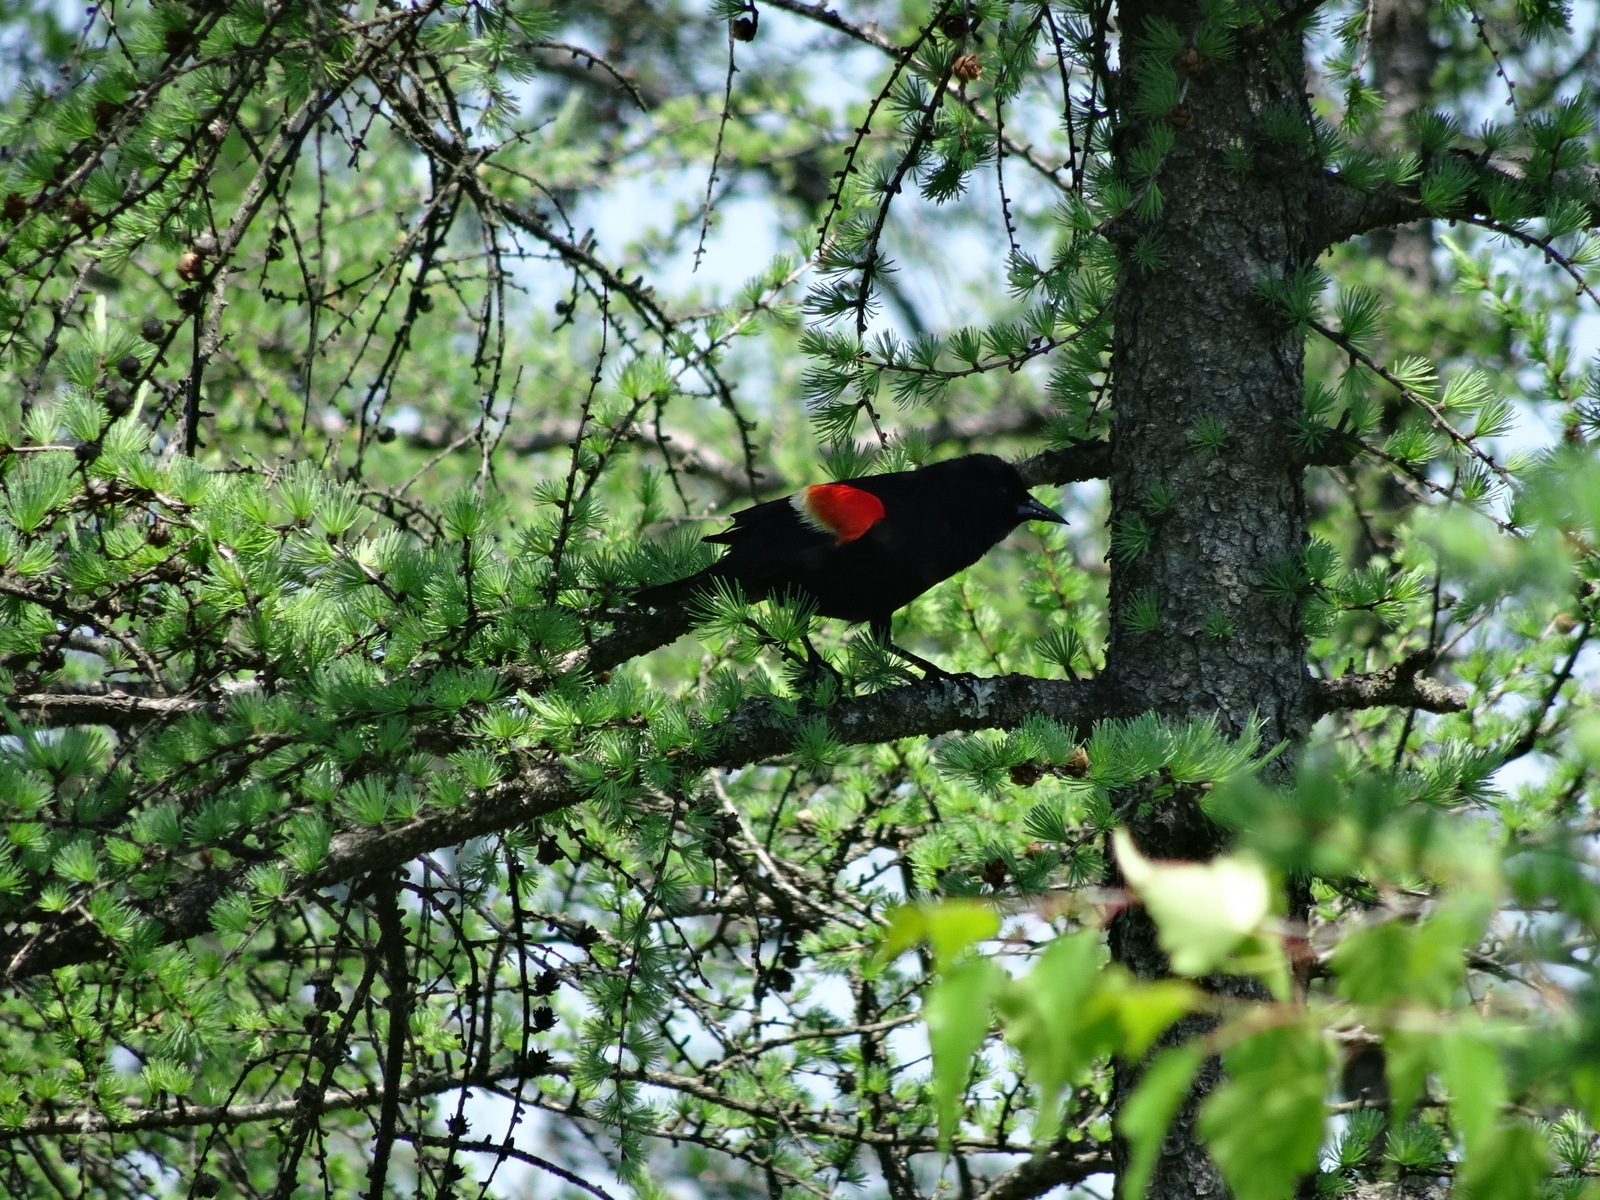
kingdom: Animalia
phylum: Chordata
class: Aves
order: Passeriformes
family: Icteridae
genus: Agelaius
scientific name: Agelaius phoeniceus
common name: Red-winged blackbird
